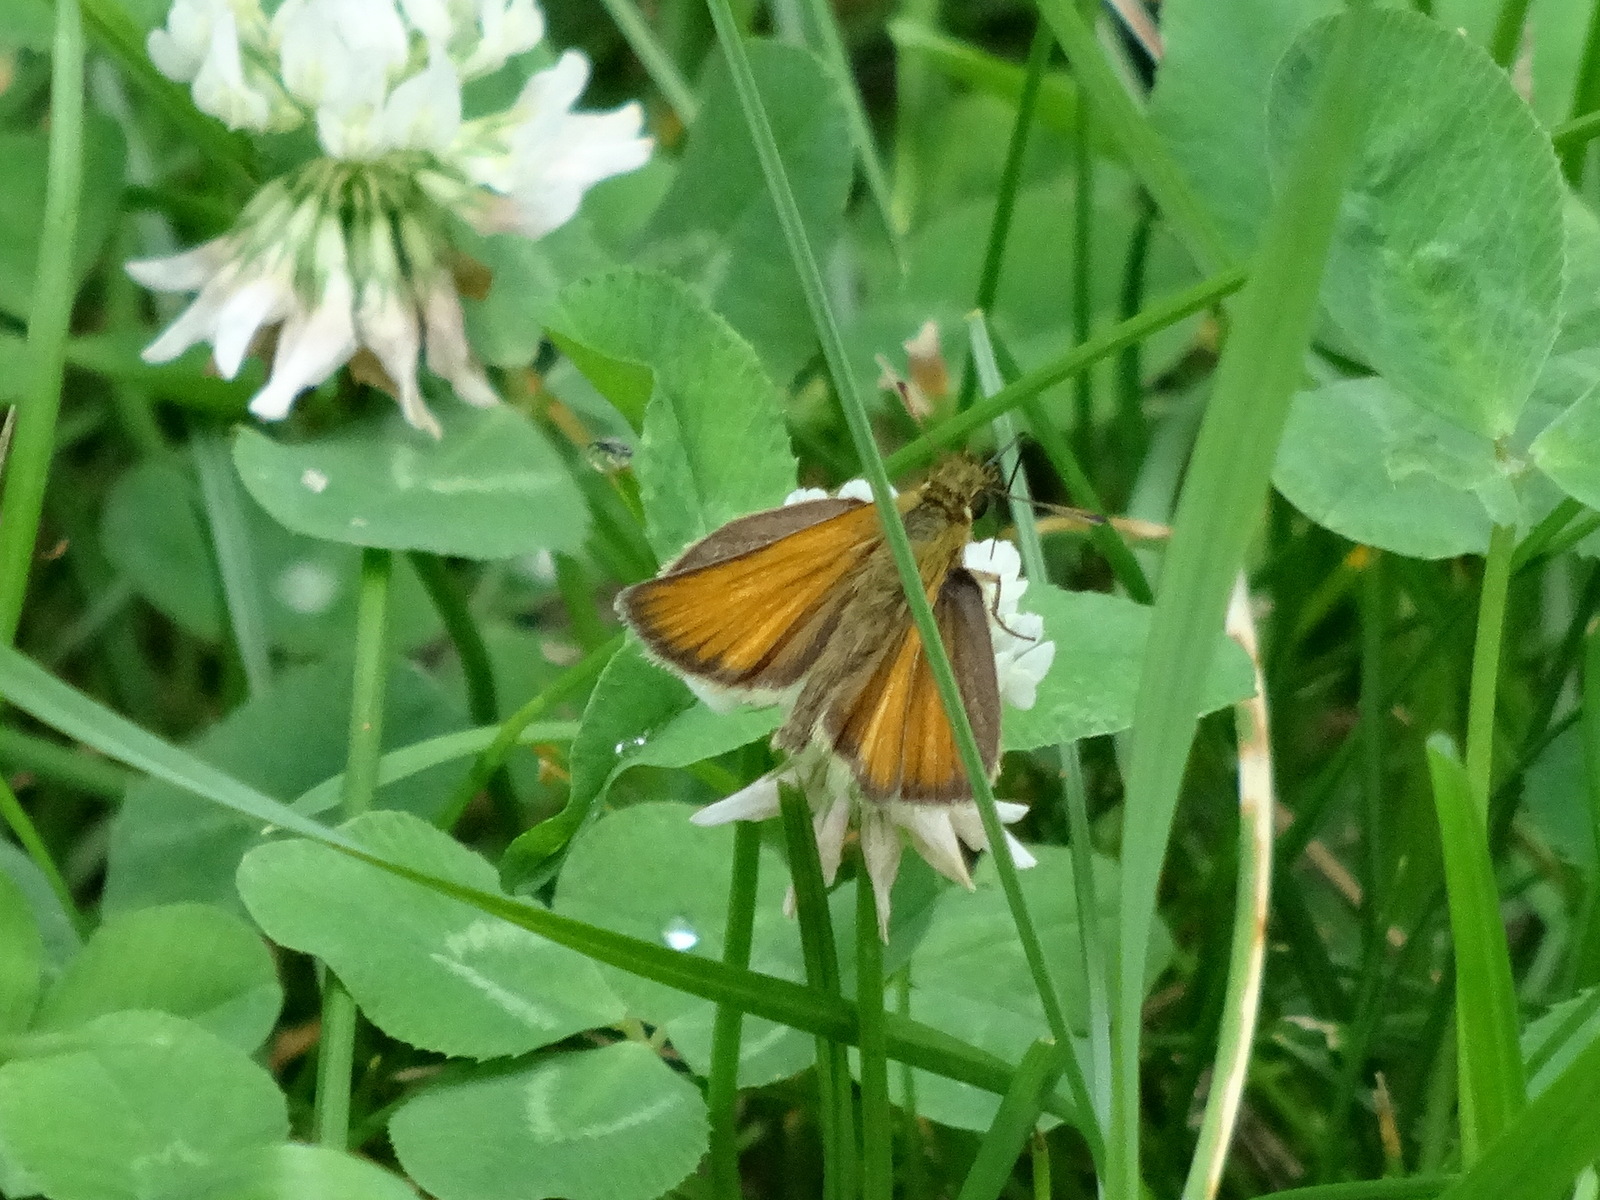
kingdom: Animalia
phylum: Arthropoda
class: Insecta
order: Lepidoptera
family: Hesperiidae
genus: Thymelicus
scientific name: Thymelicus lineola
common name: Essex skipper
